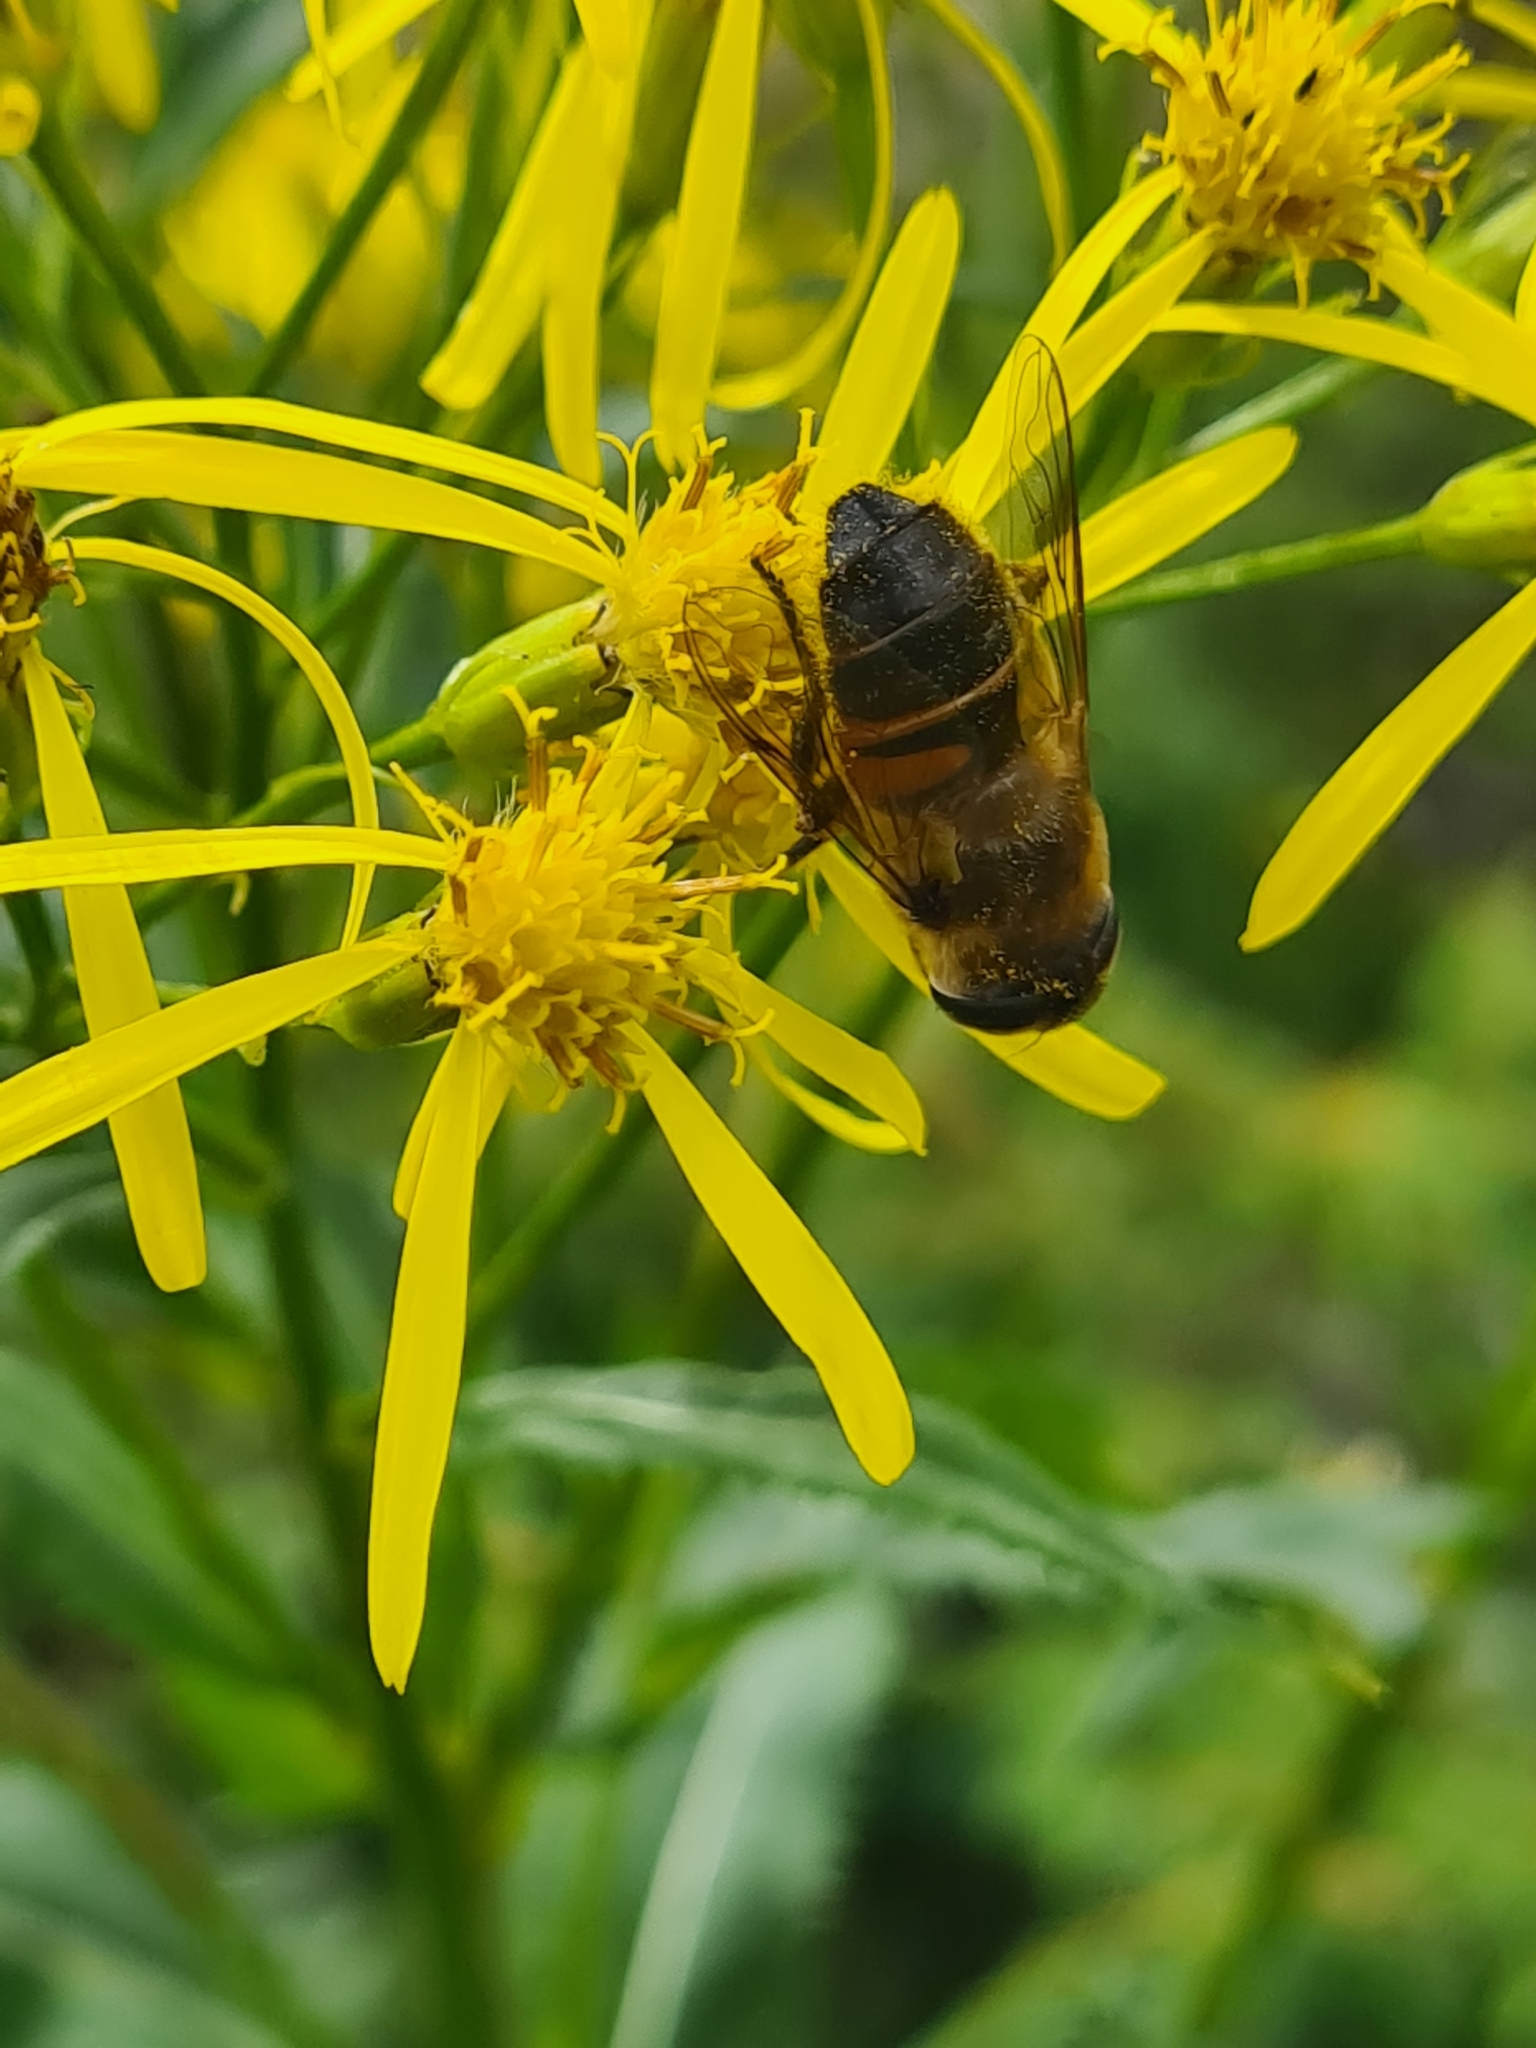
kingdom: Animalia
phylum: Arthropoda
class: Insecta
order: Diptera
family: Syrphidae
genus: Eristalis
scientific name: Eristalis
